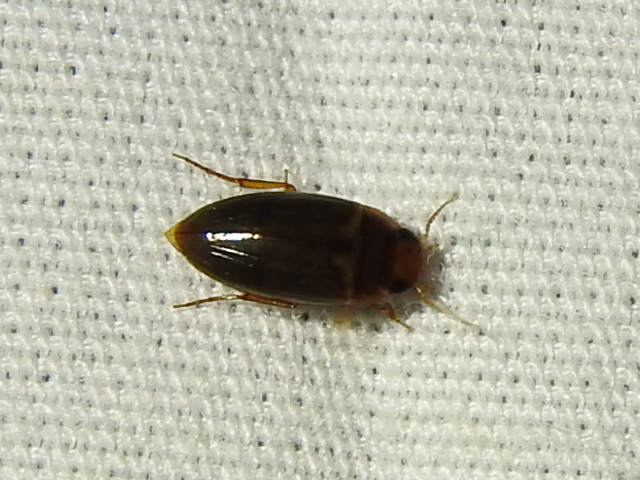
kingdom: Animalia
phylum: Arthropoda
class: Insecta
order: Coleoptera
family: Dytiscidae
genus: Copelatus
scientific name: Copelatus debilis
